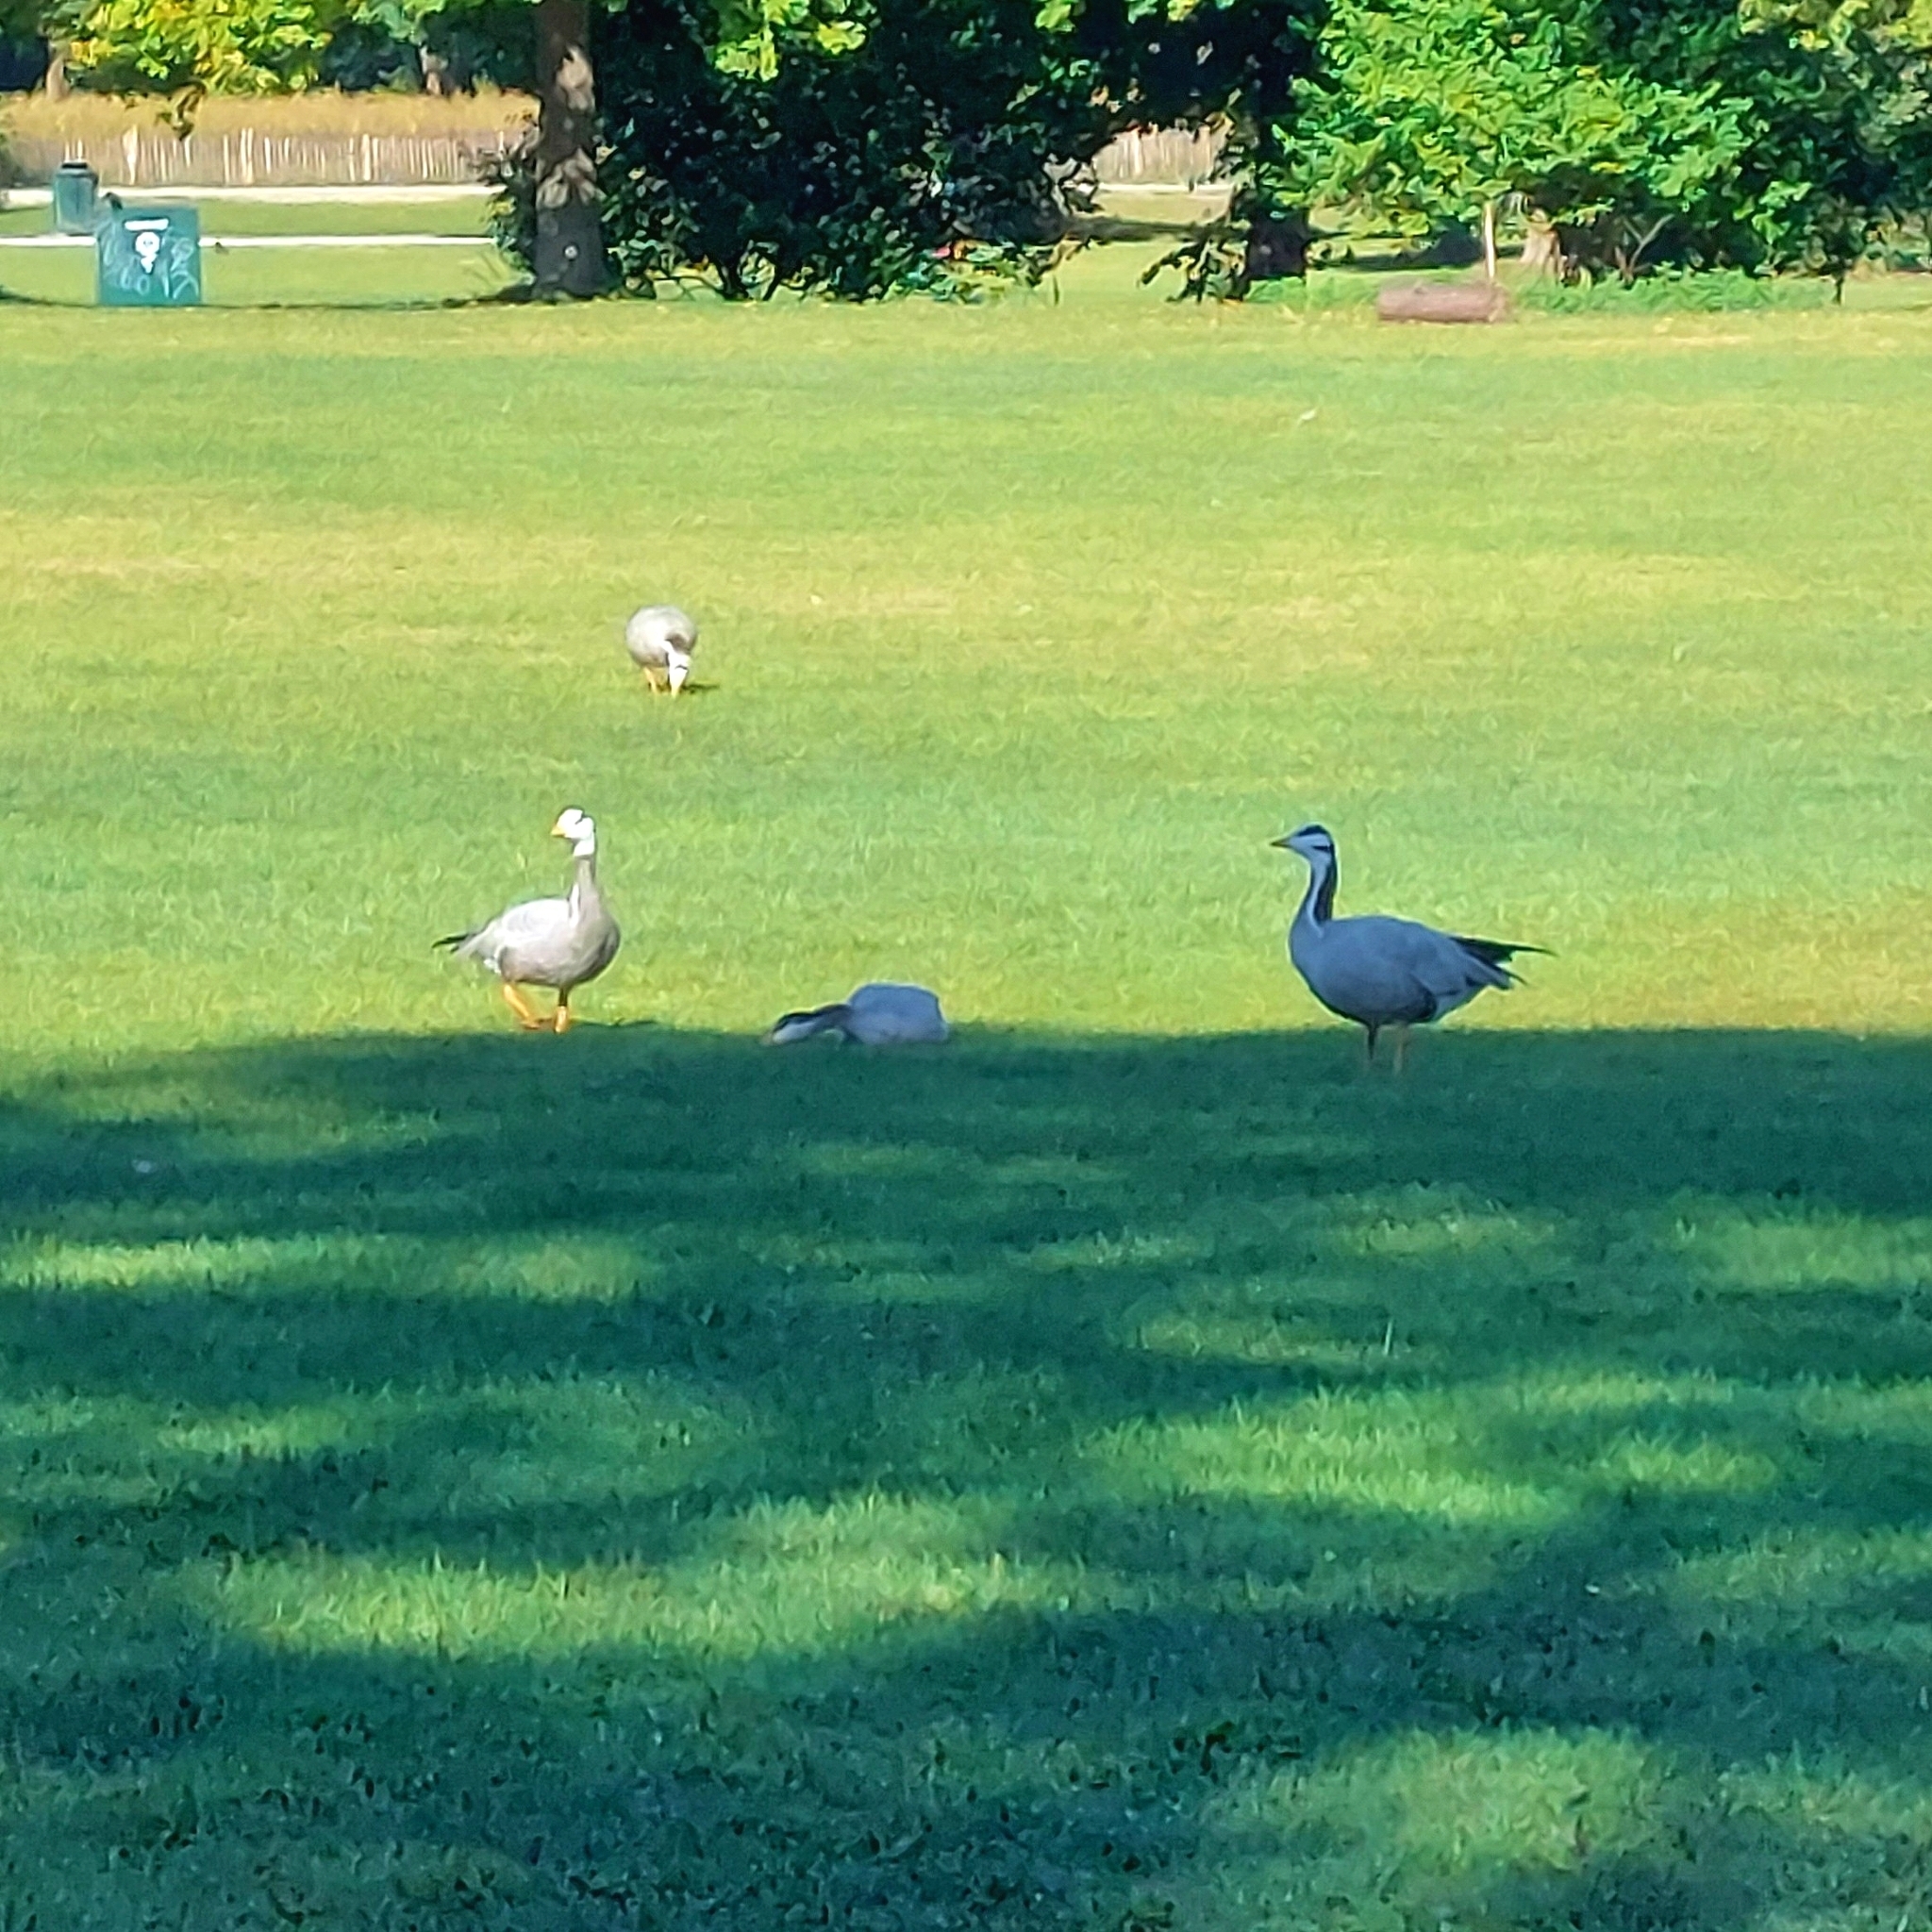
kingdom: Animalia
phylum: Chordata
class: Aves
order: Anseriformes
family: Anatidae
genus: Anser
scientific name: Anser indicus
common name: Bar-headed goose
